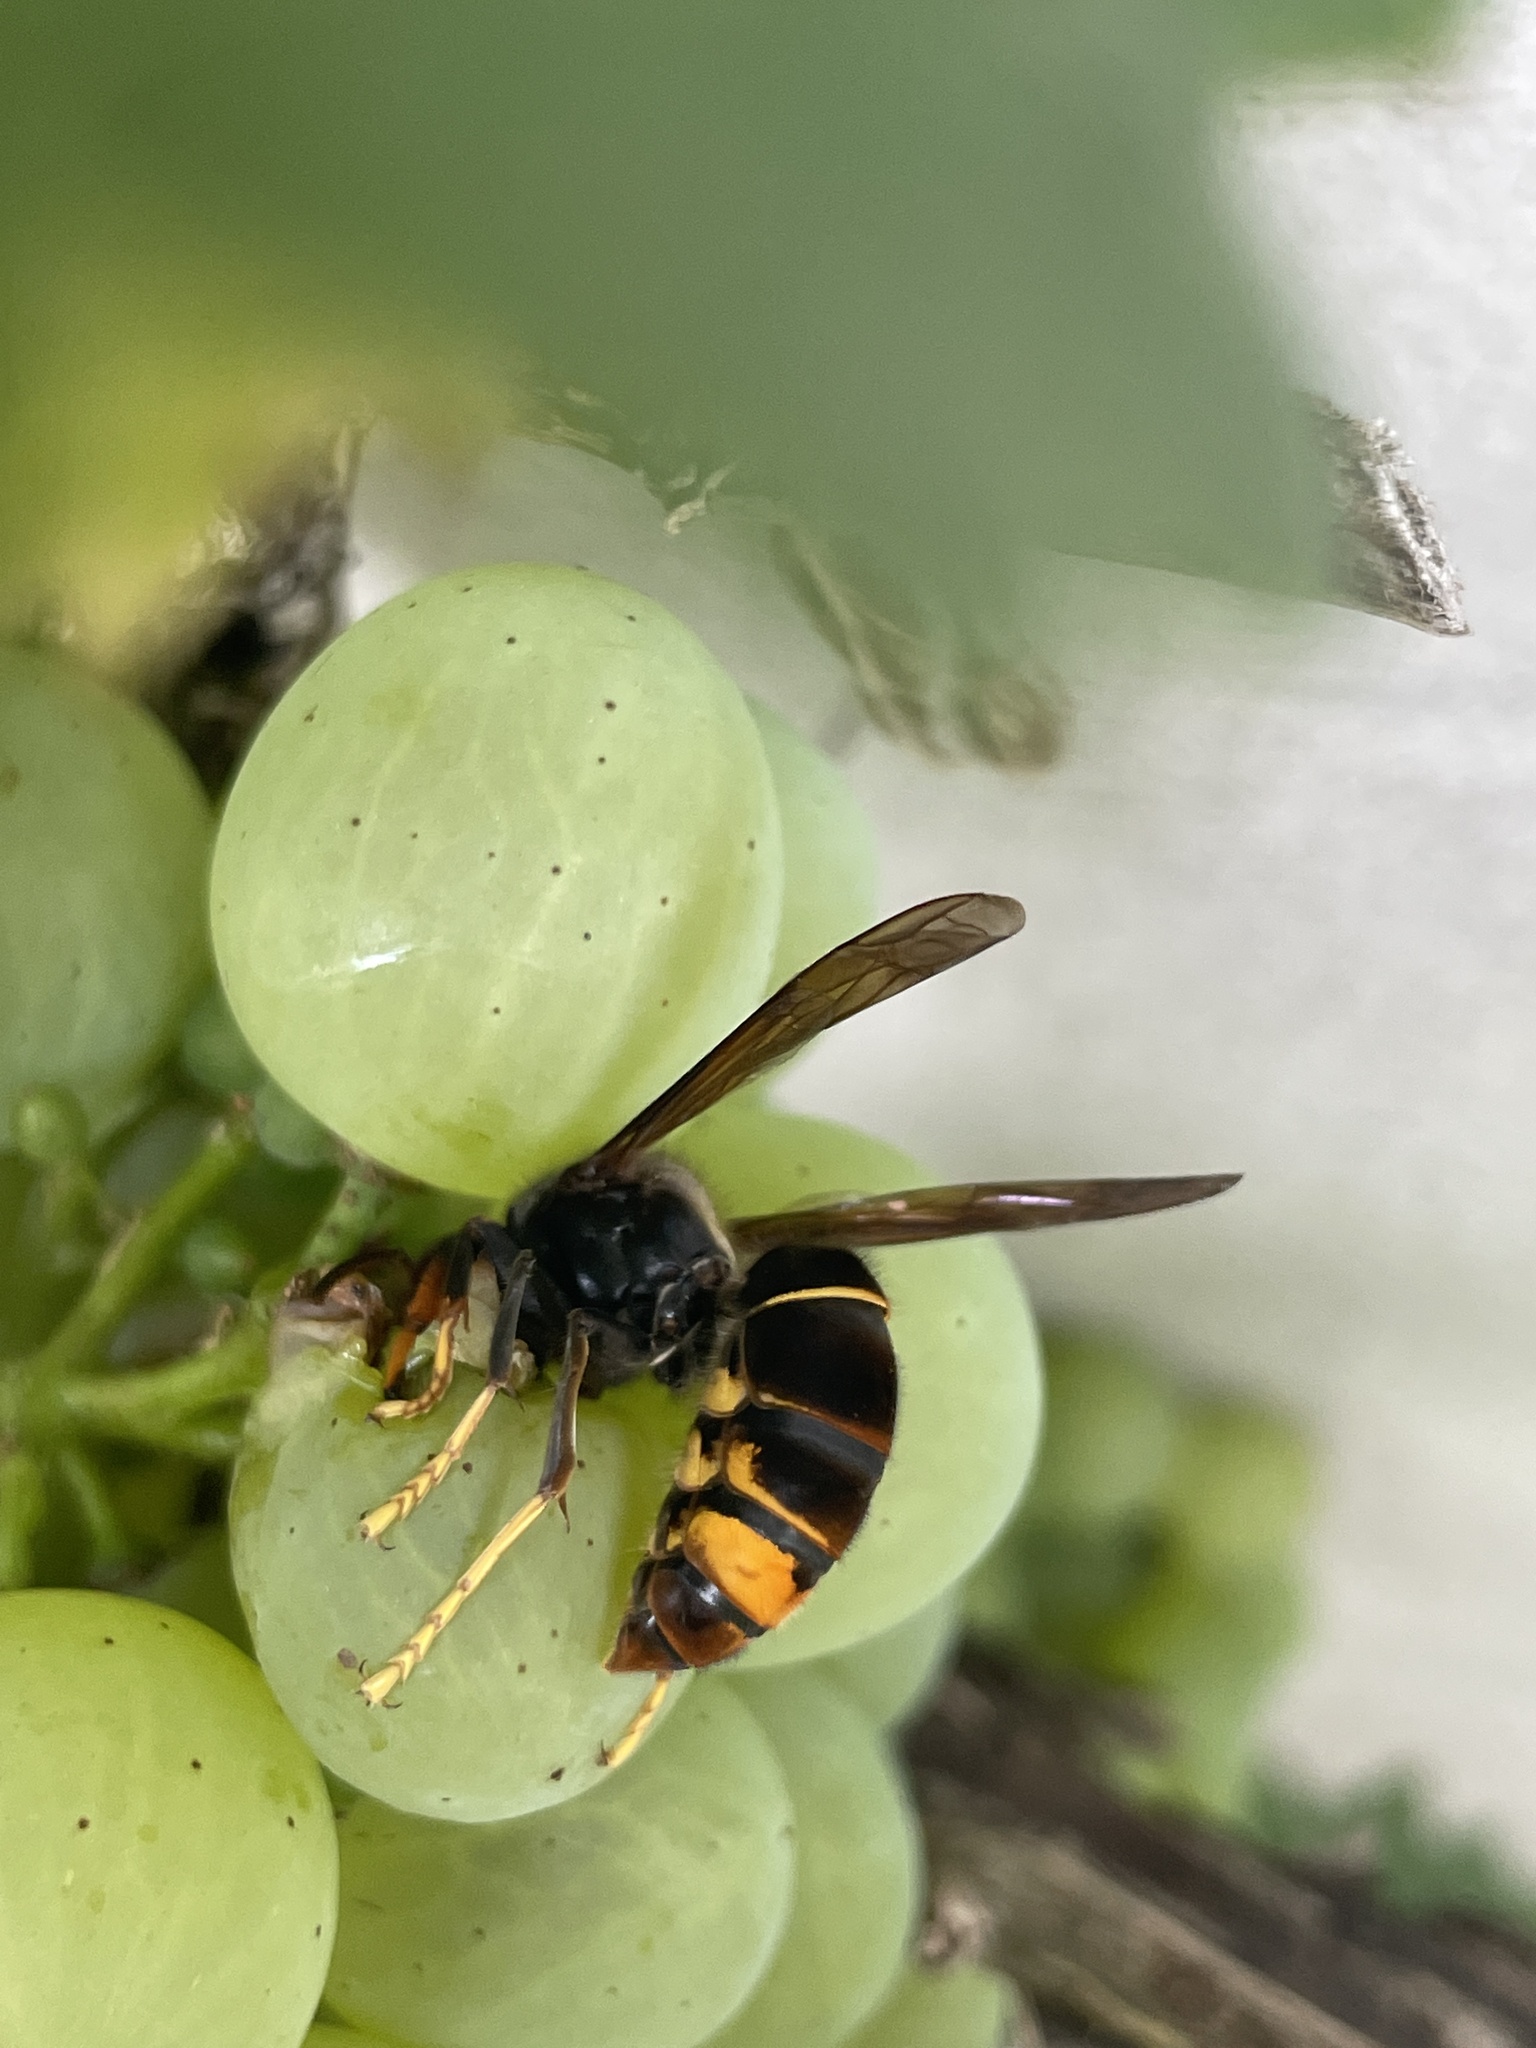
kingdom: Animalia
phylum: Arthropoda
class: Insecta
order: Hymenoptera
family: Vespidae
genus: Vespa
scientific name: Vespa velutina
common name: Asian hornet
